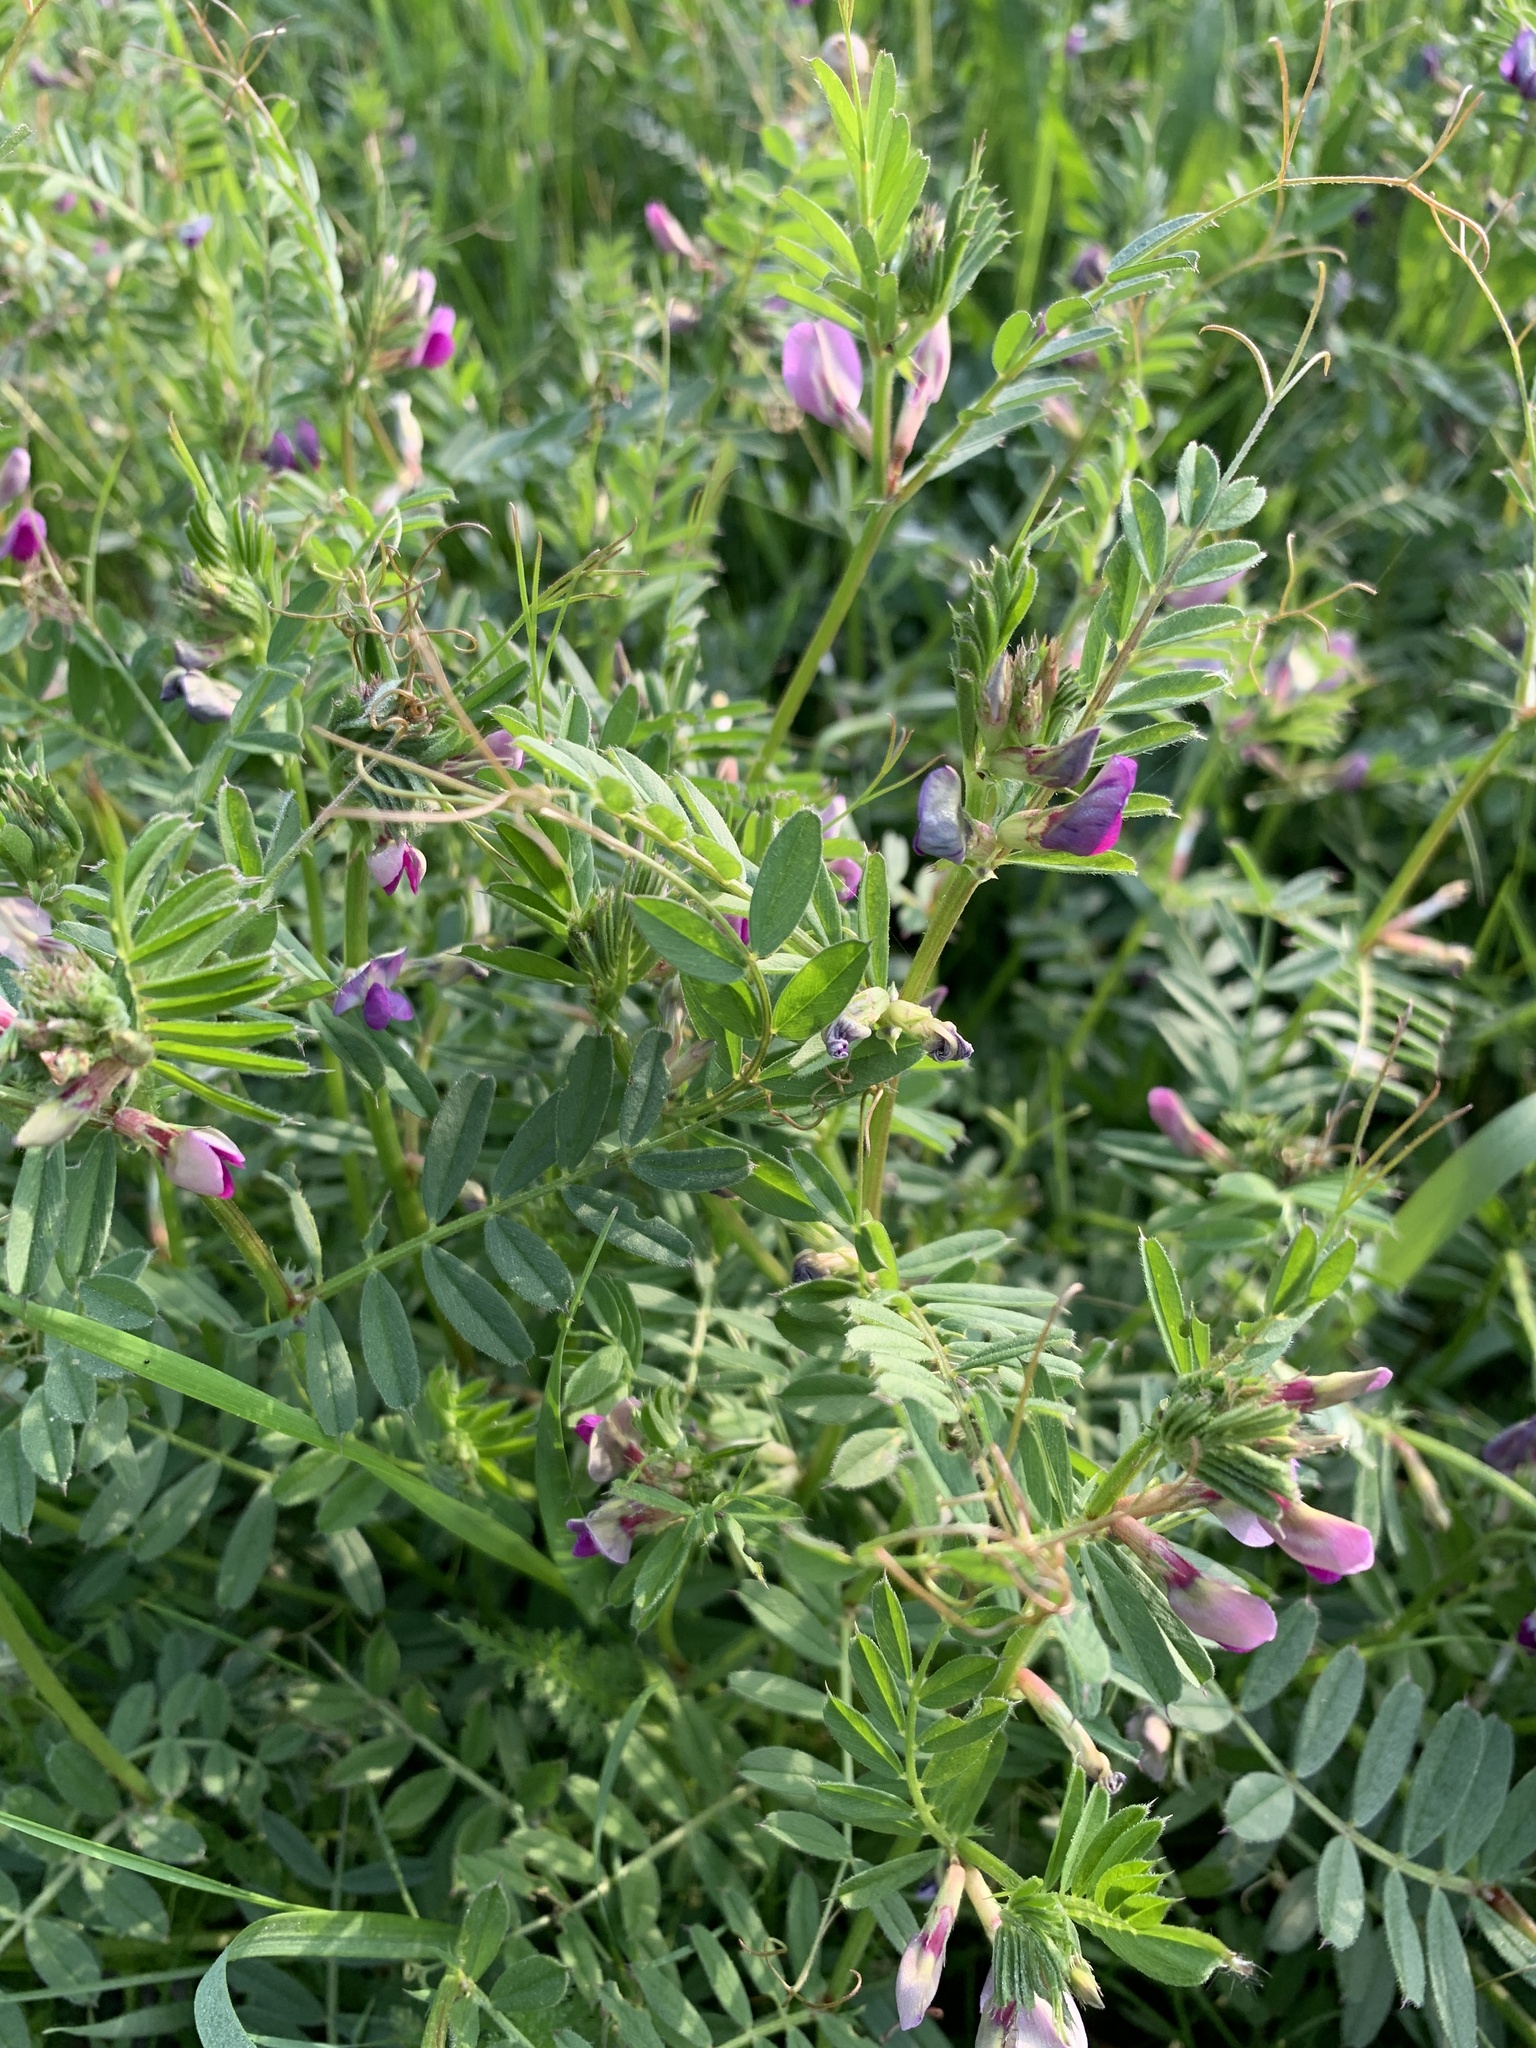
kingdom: Plantae
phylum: Tracheophyta
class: Magnoliopsida
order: Fabales
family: Fabaceae
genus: Vicia
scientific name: Vicia sativa
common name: Garden vetch
